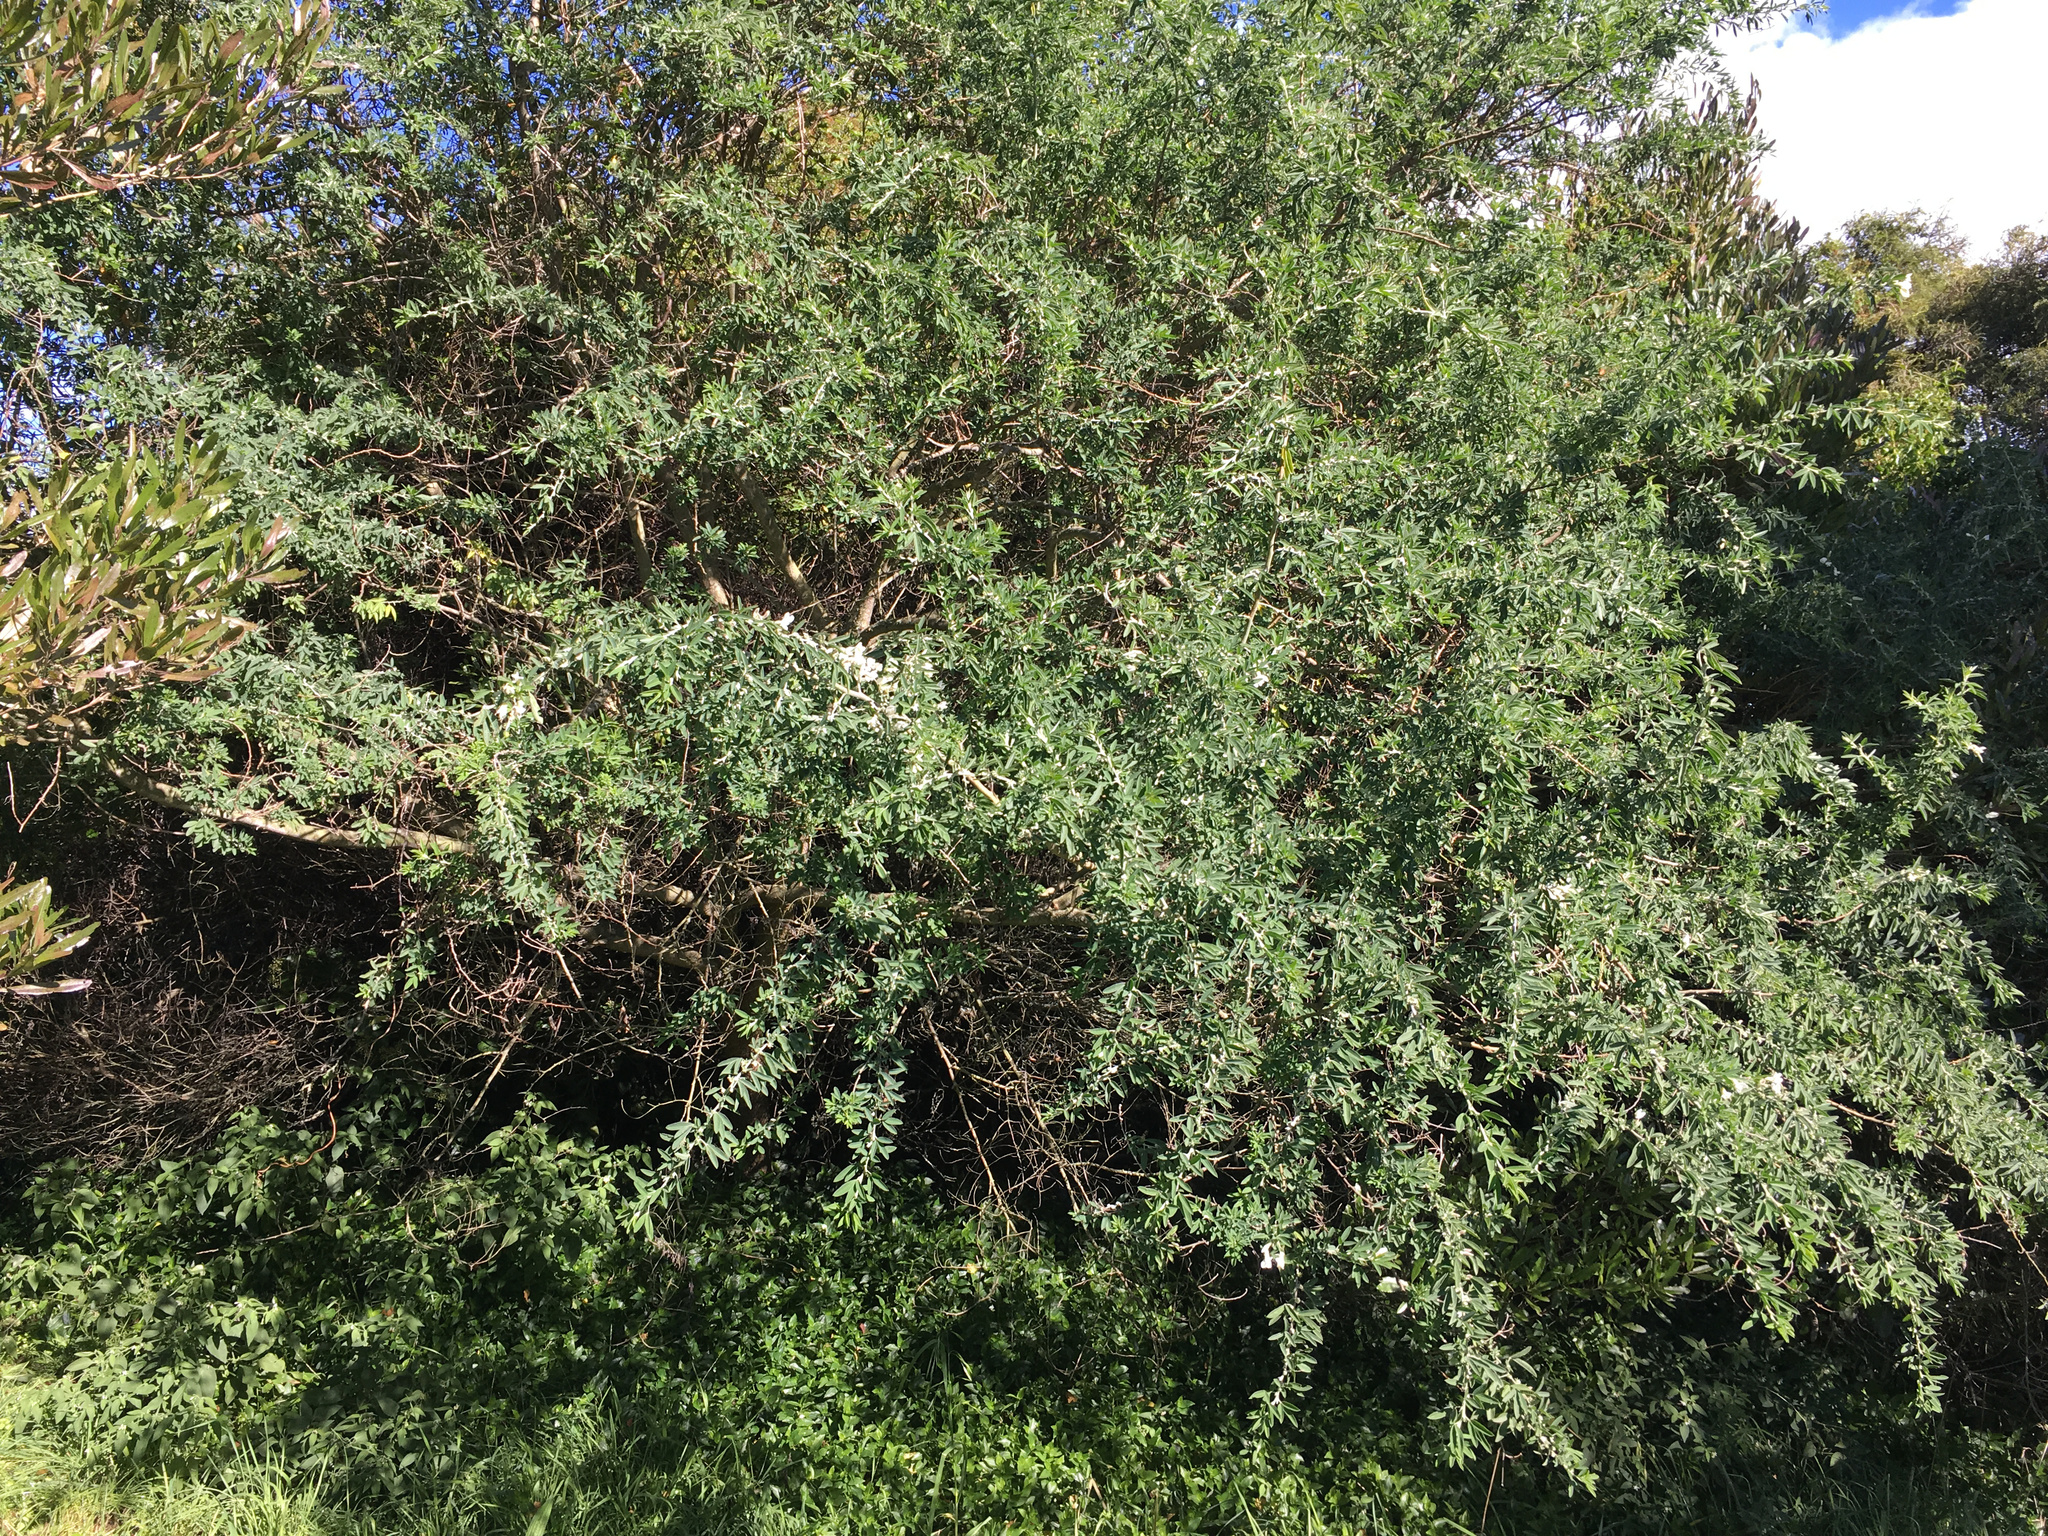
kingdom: Plantae
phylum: Tracheophyta
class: Magnoliopsida
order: Fabales
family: Fabaceae
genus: Chamaecytisus
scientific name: Chamaecytisus prolifer
